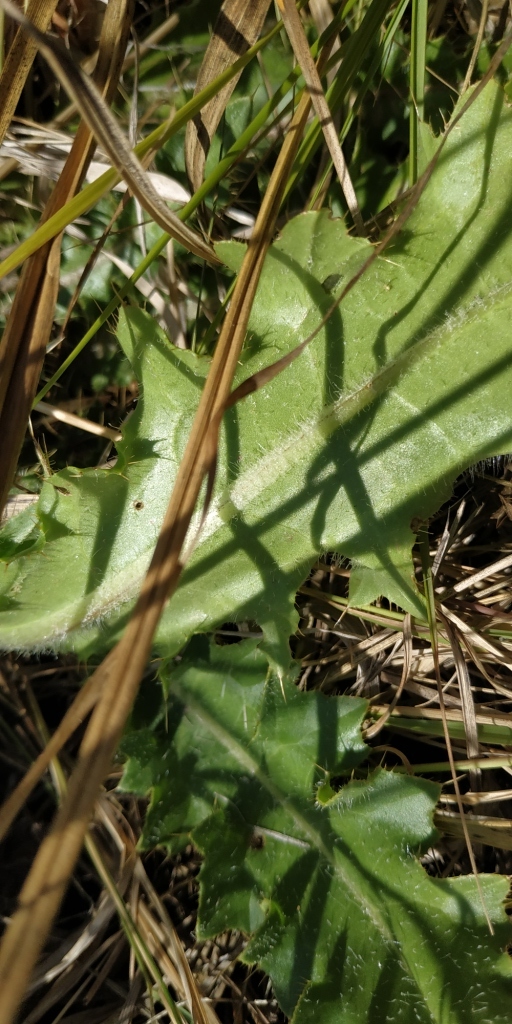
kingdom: Plantae
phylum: Tracheophyta
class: Magnoliopsida
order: Asterales
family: Asteraceae
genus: Cirsium
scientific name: Cirsium esculentum
